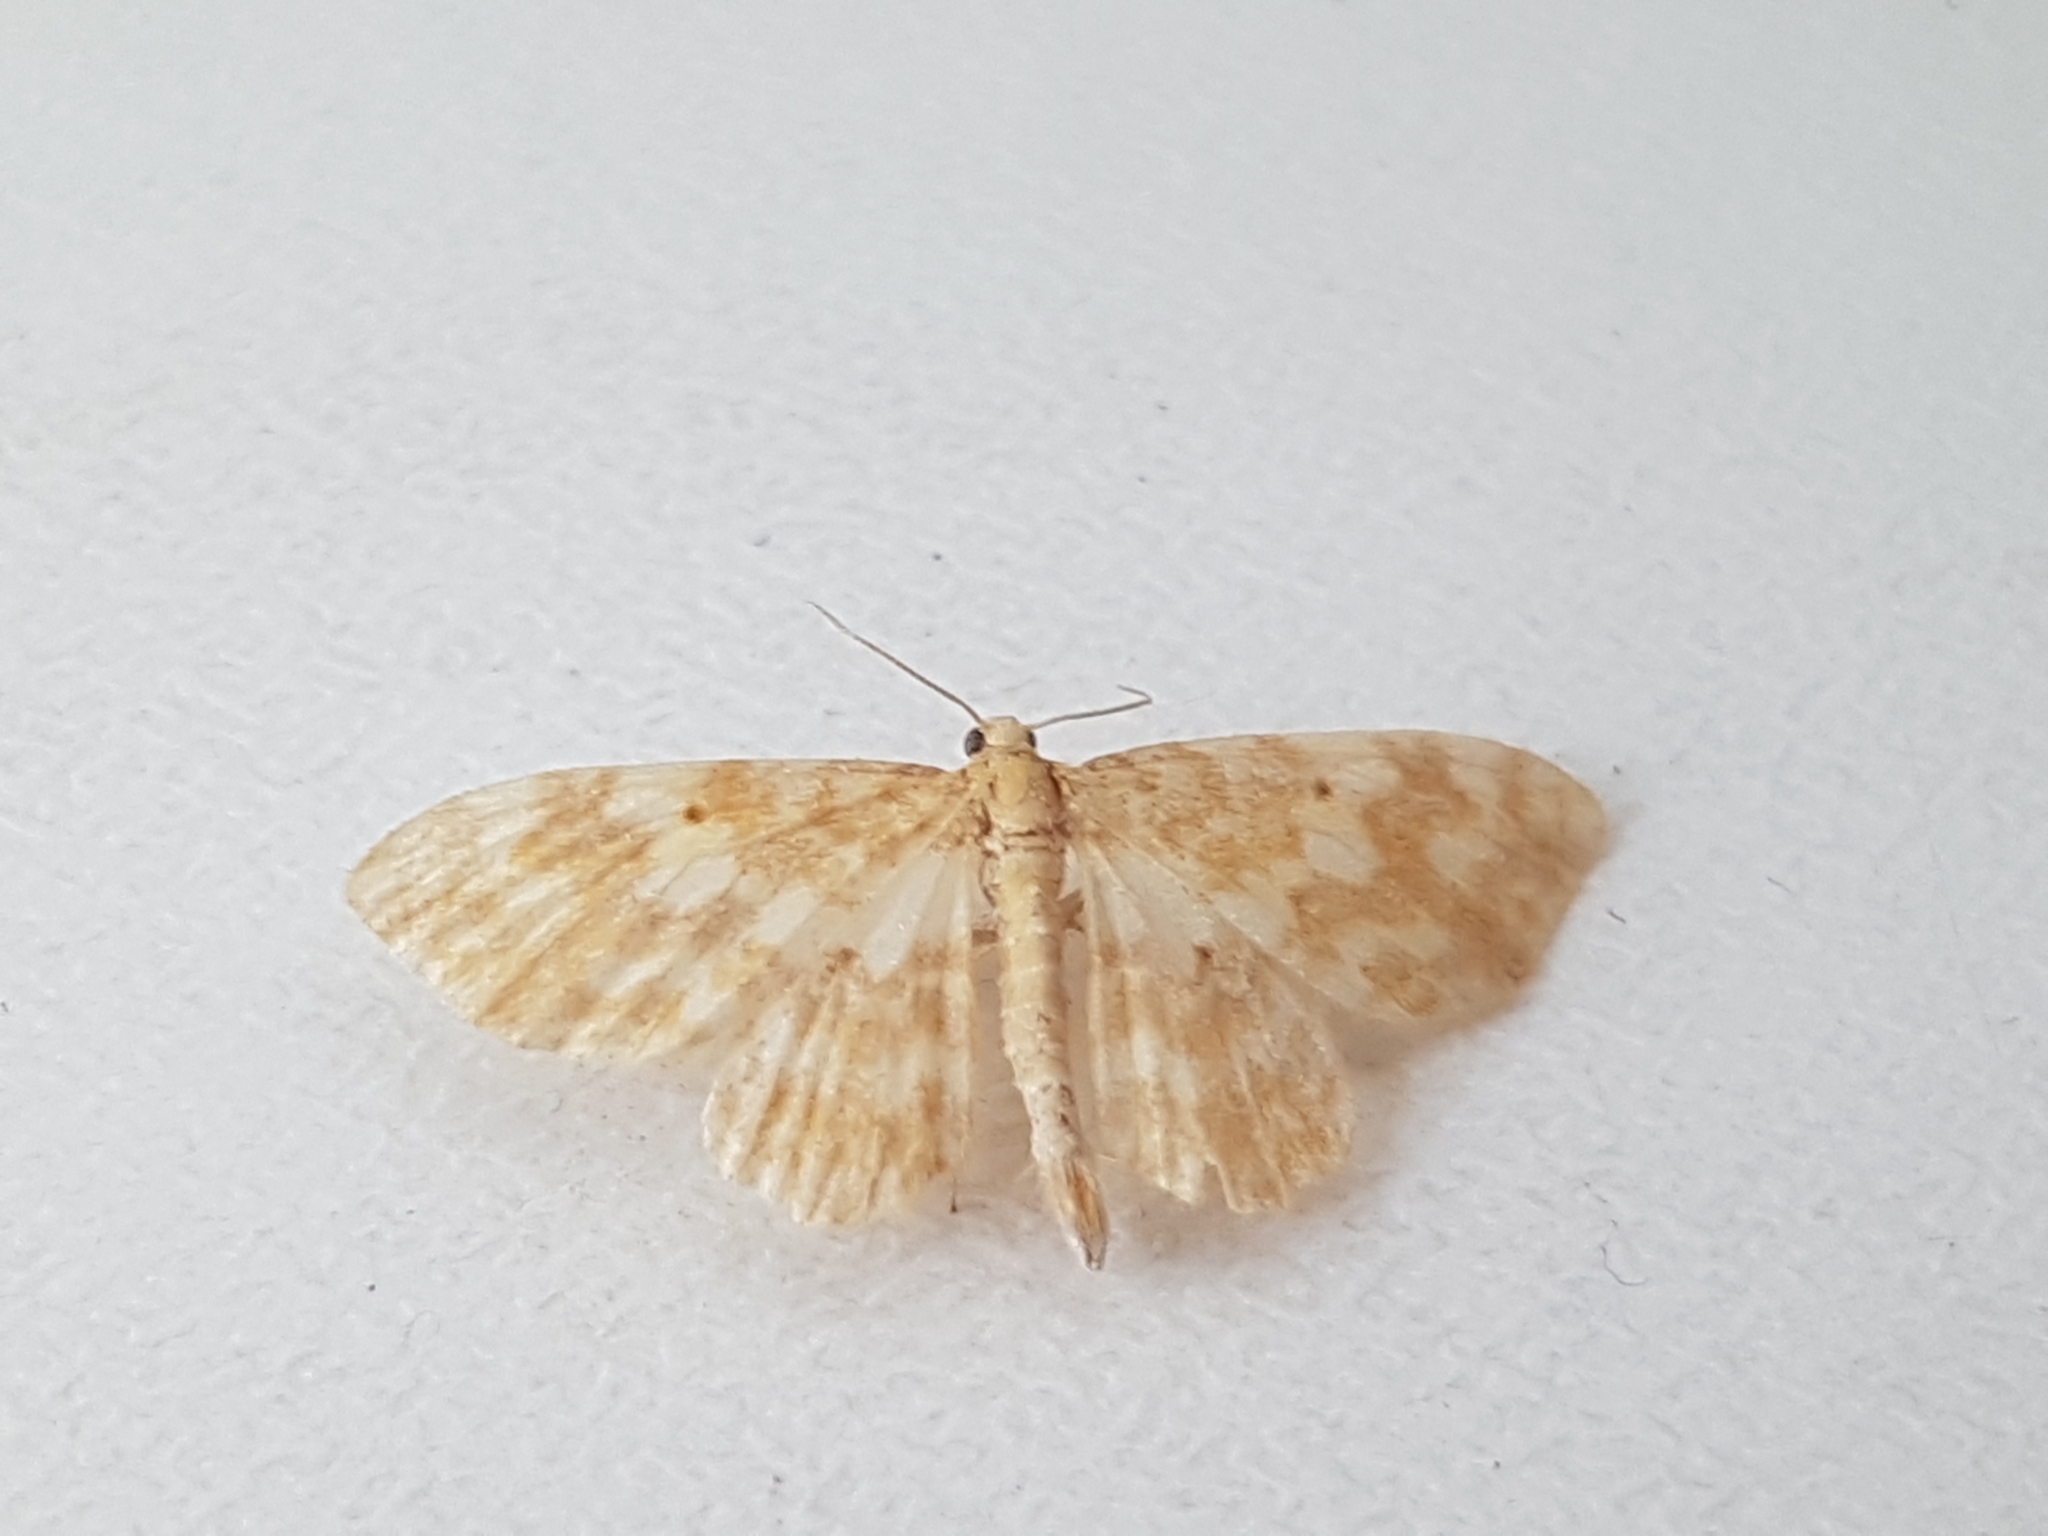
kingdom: Animalia
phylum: Arthropoda
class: Insecta
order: Lepidoptera
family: Geometridae
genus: Hydrelia
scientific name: Hydrelia flammeolaria
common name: Small yellow wave
